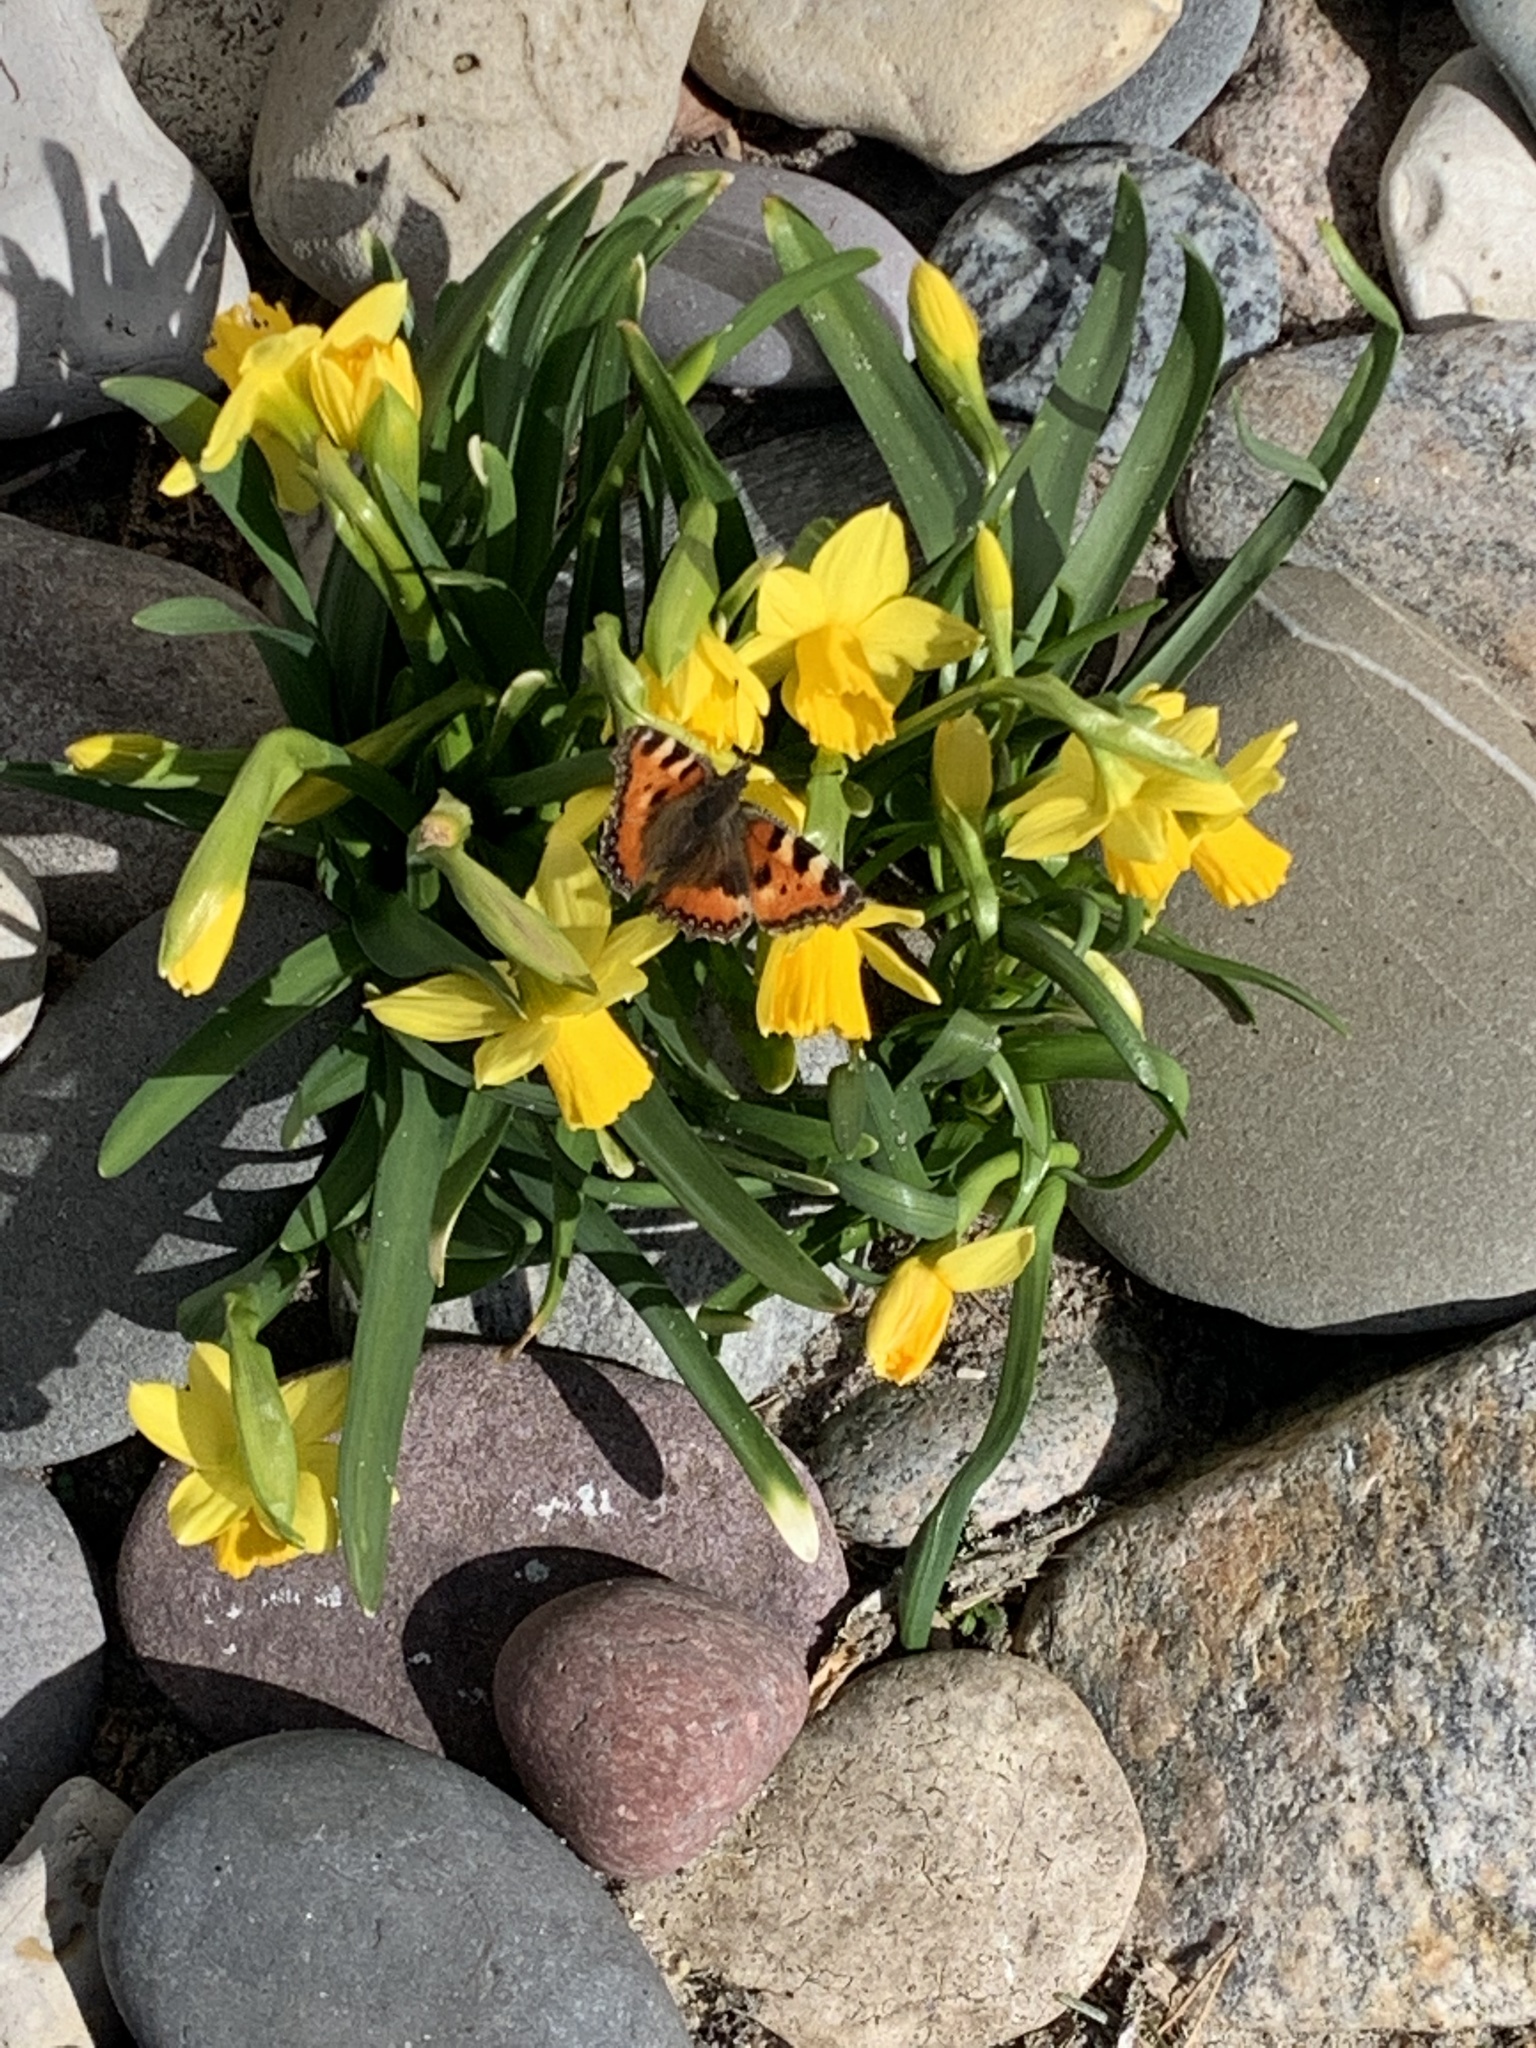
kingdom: Animalia
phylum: Arthropoda
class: Insecta
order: Lepidoptera
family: Nymphalidae
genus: Aglais
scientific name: Aglais urticae
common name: Small tortoiseshell
